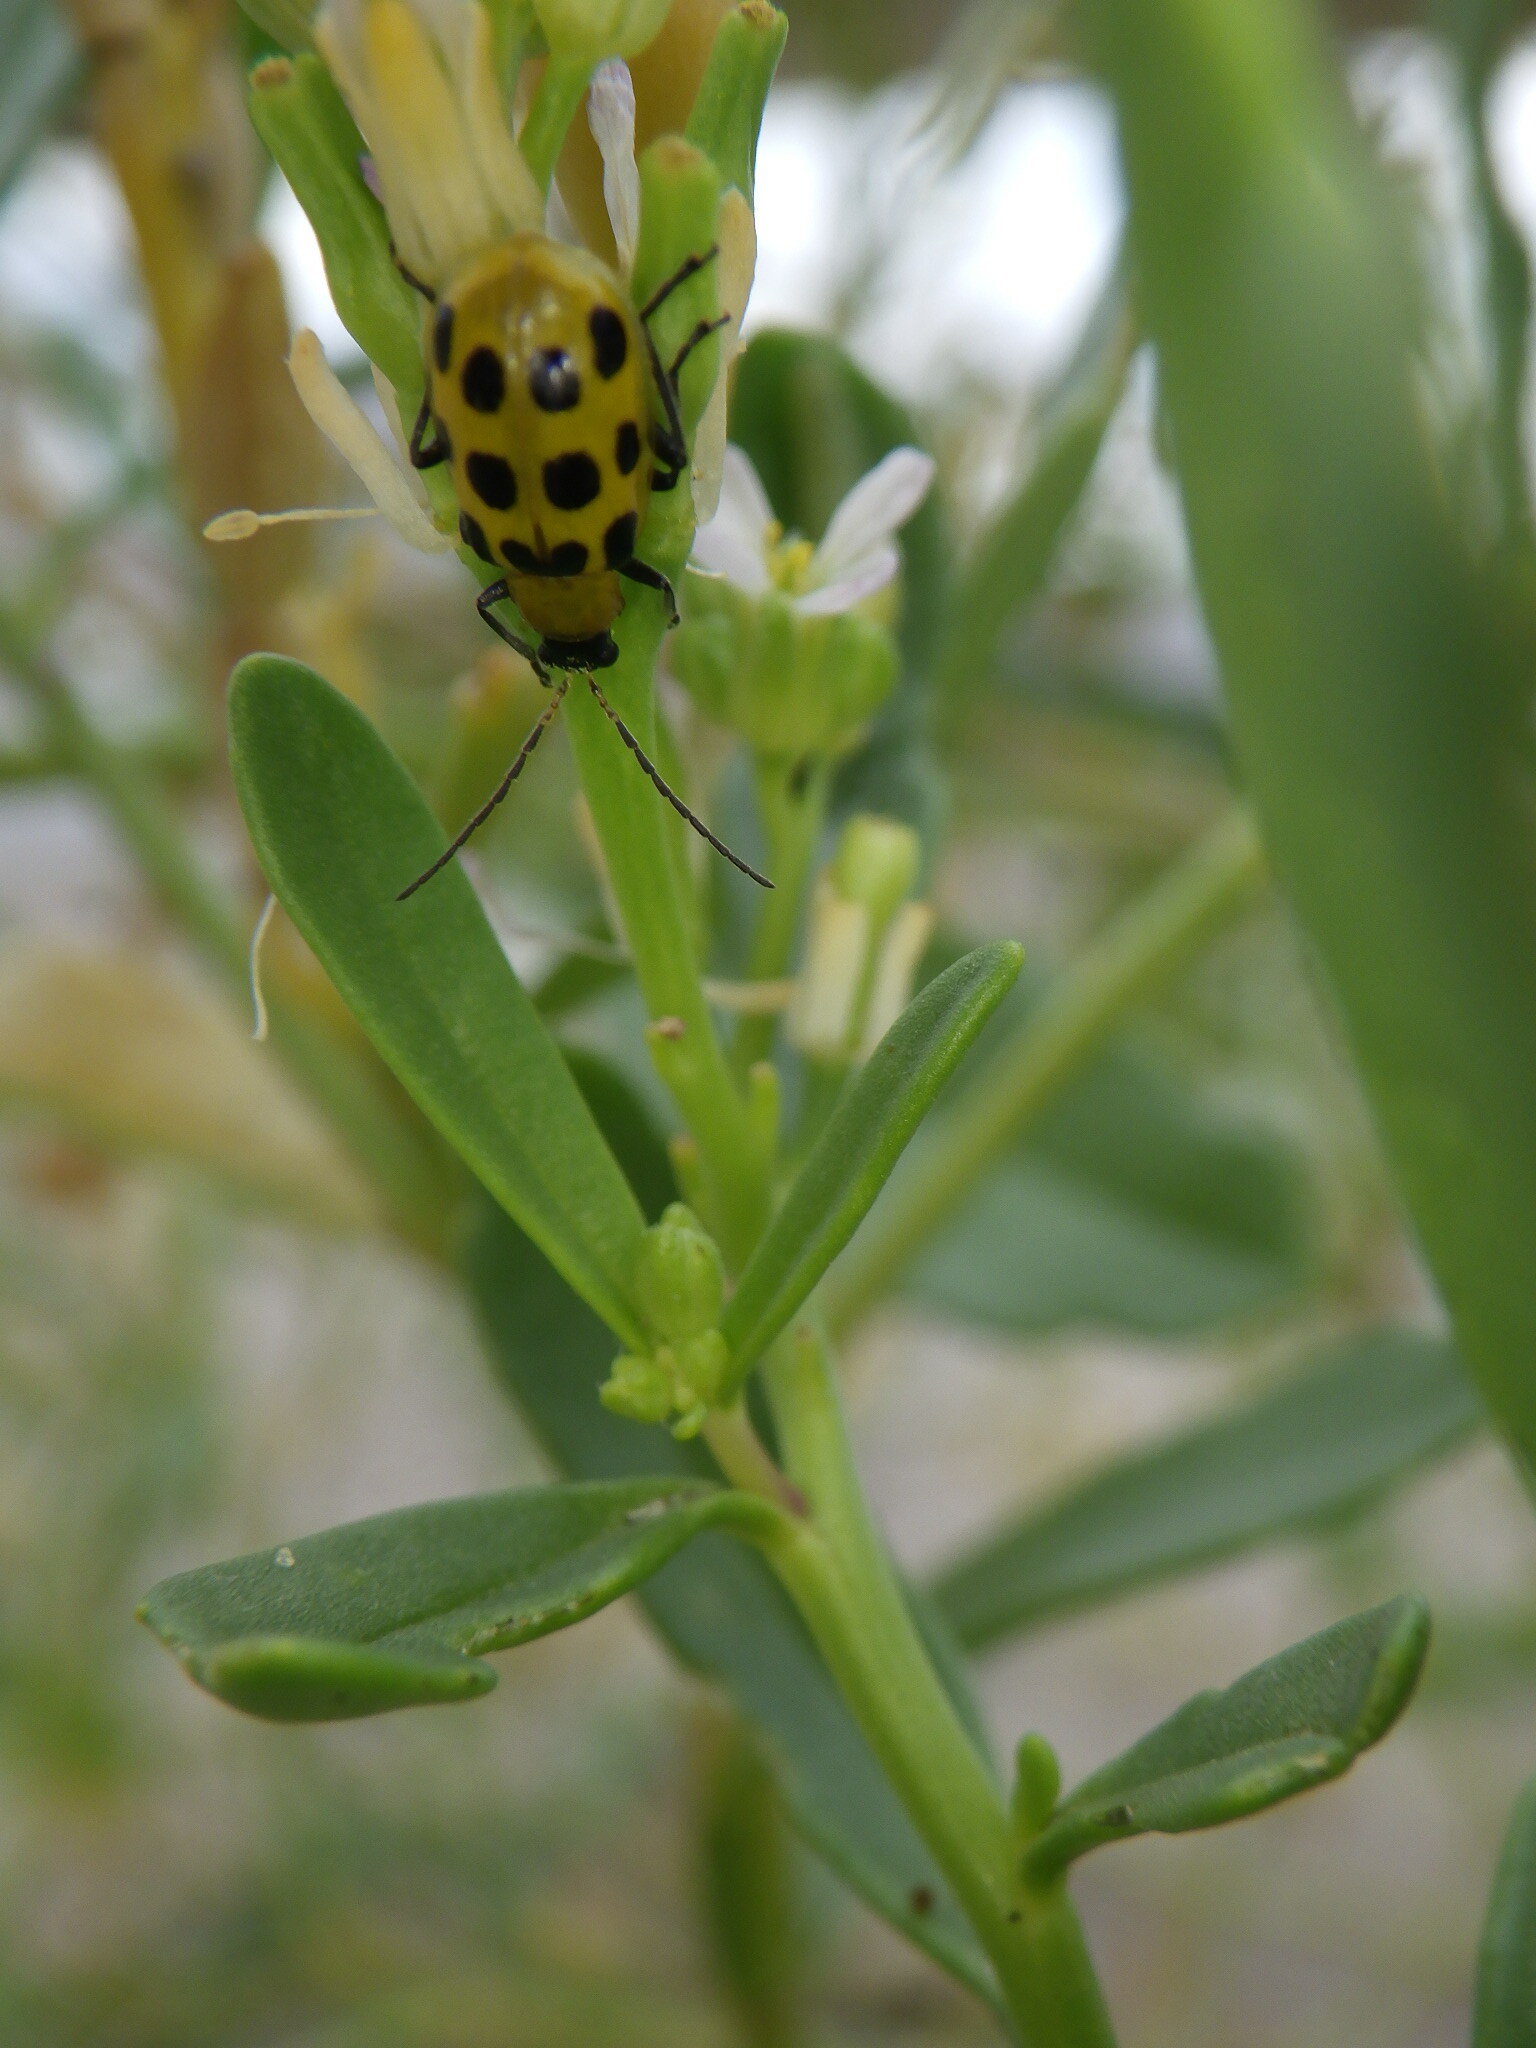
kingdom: Animalia
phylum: Arthropoda
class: Insecta
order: Coleoptera
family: Chrysomelidae
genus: Diabrotica
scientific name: Diabrotica undecimpunctata
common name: Spotted cucumber beetle
